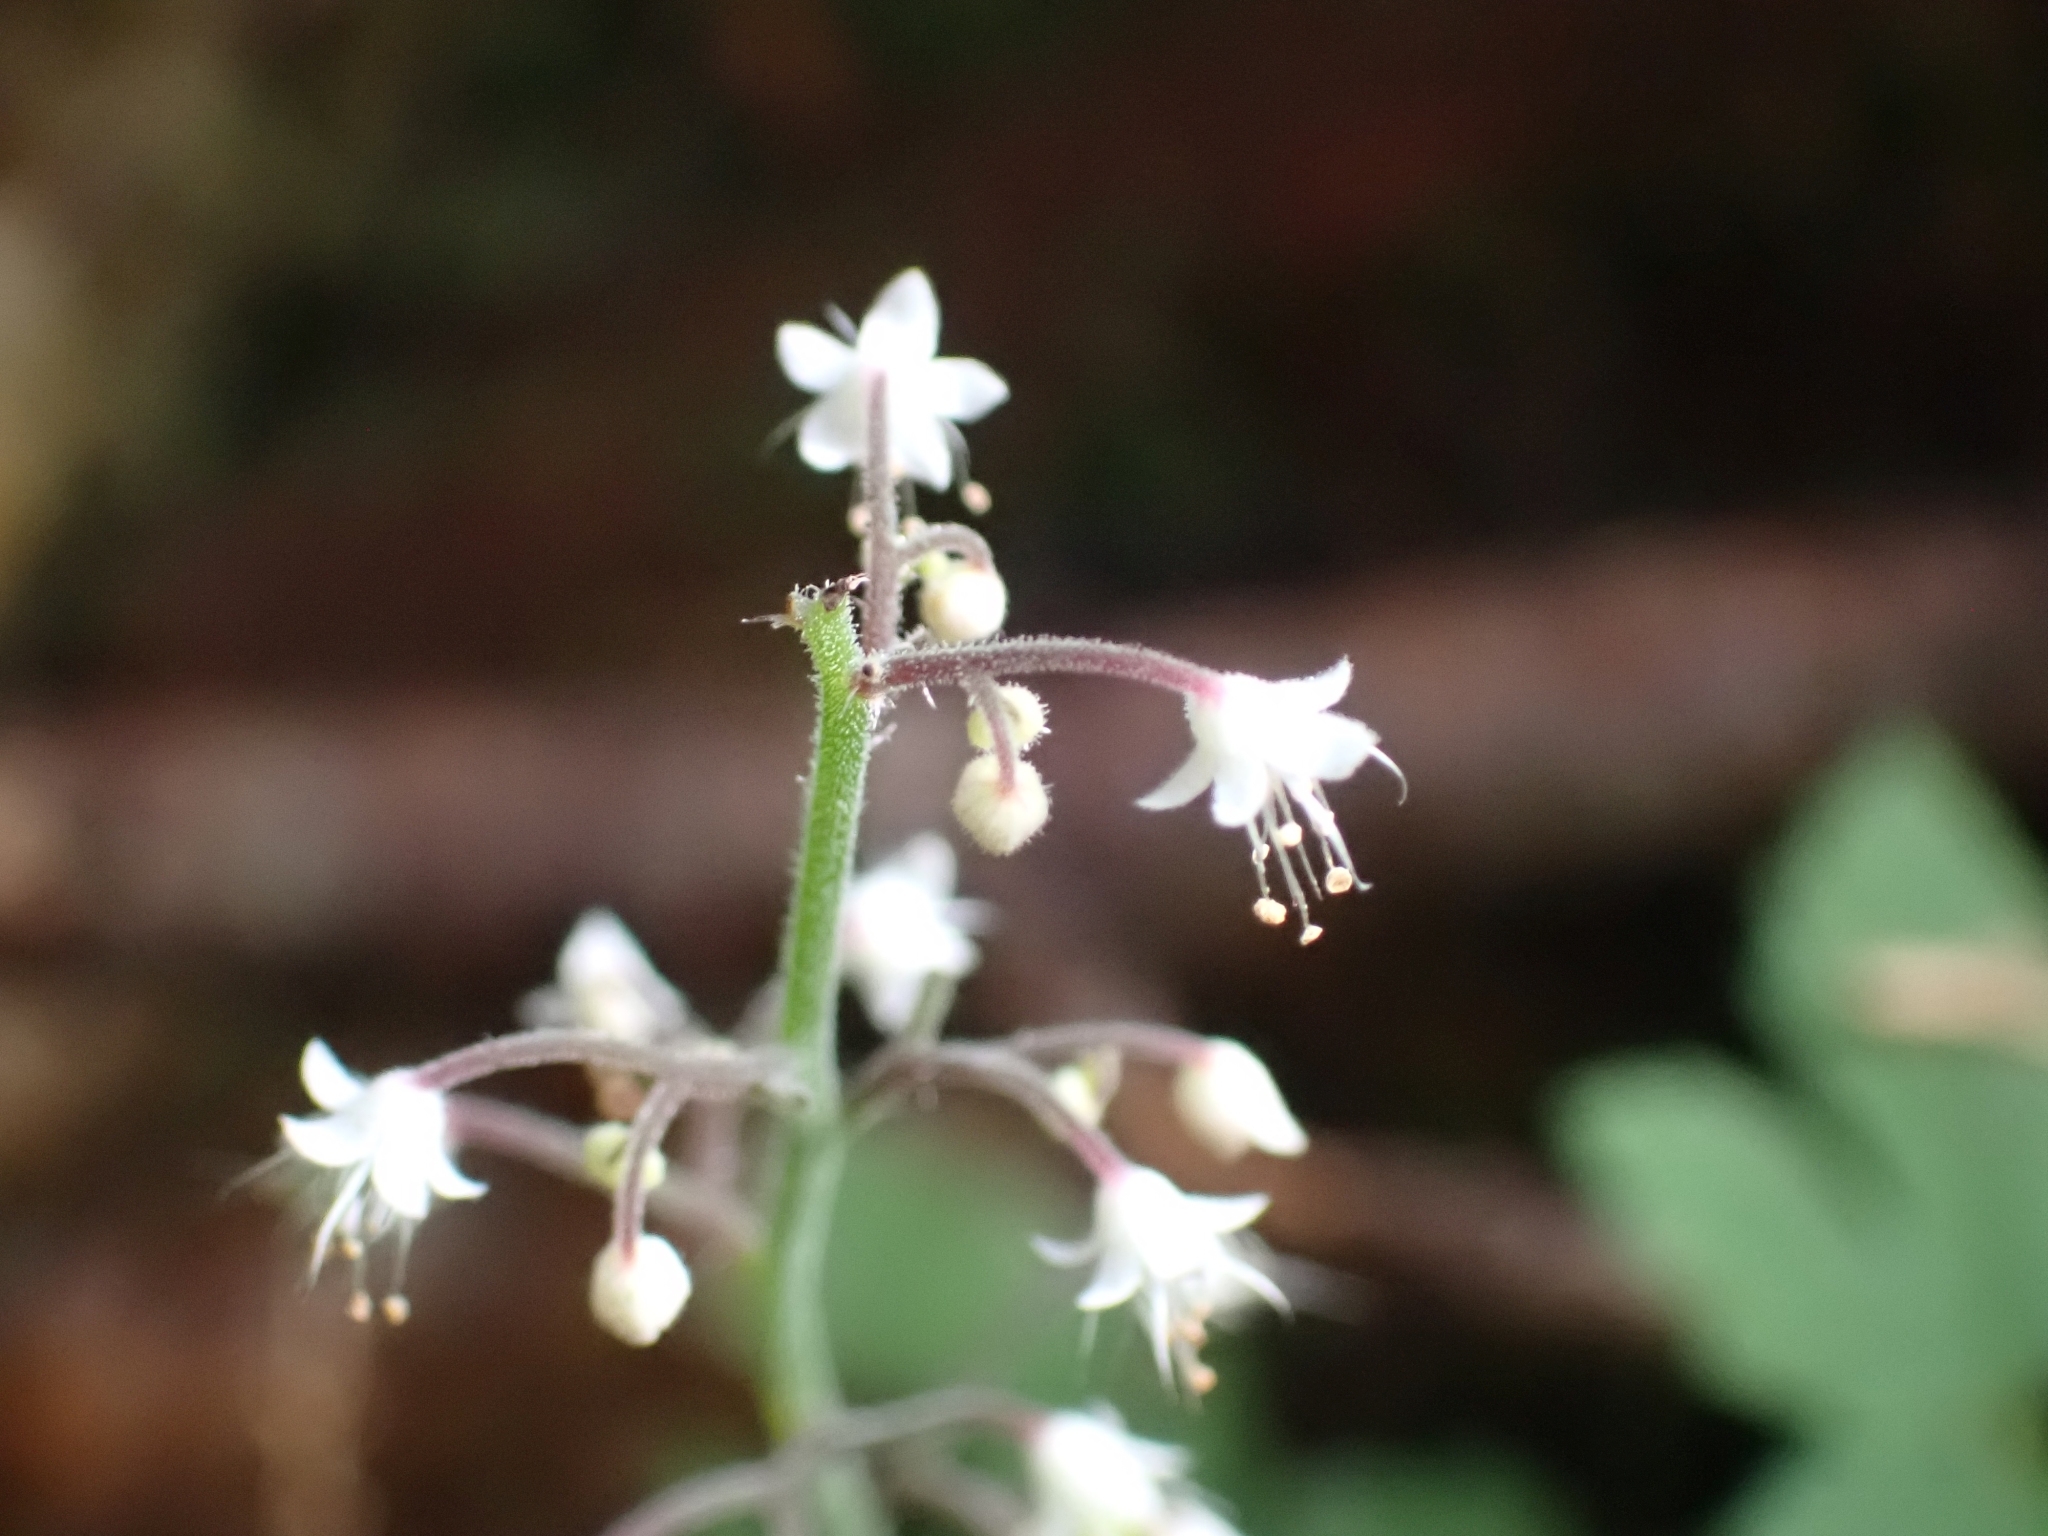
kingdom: Plantae
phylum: Tracheophyta
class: Magnoliopsida
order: Saxifragales
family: Saxifragaceae
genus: Tiarella
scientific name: Tiarella trifoliata
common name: Sugar-scoop
